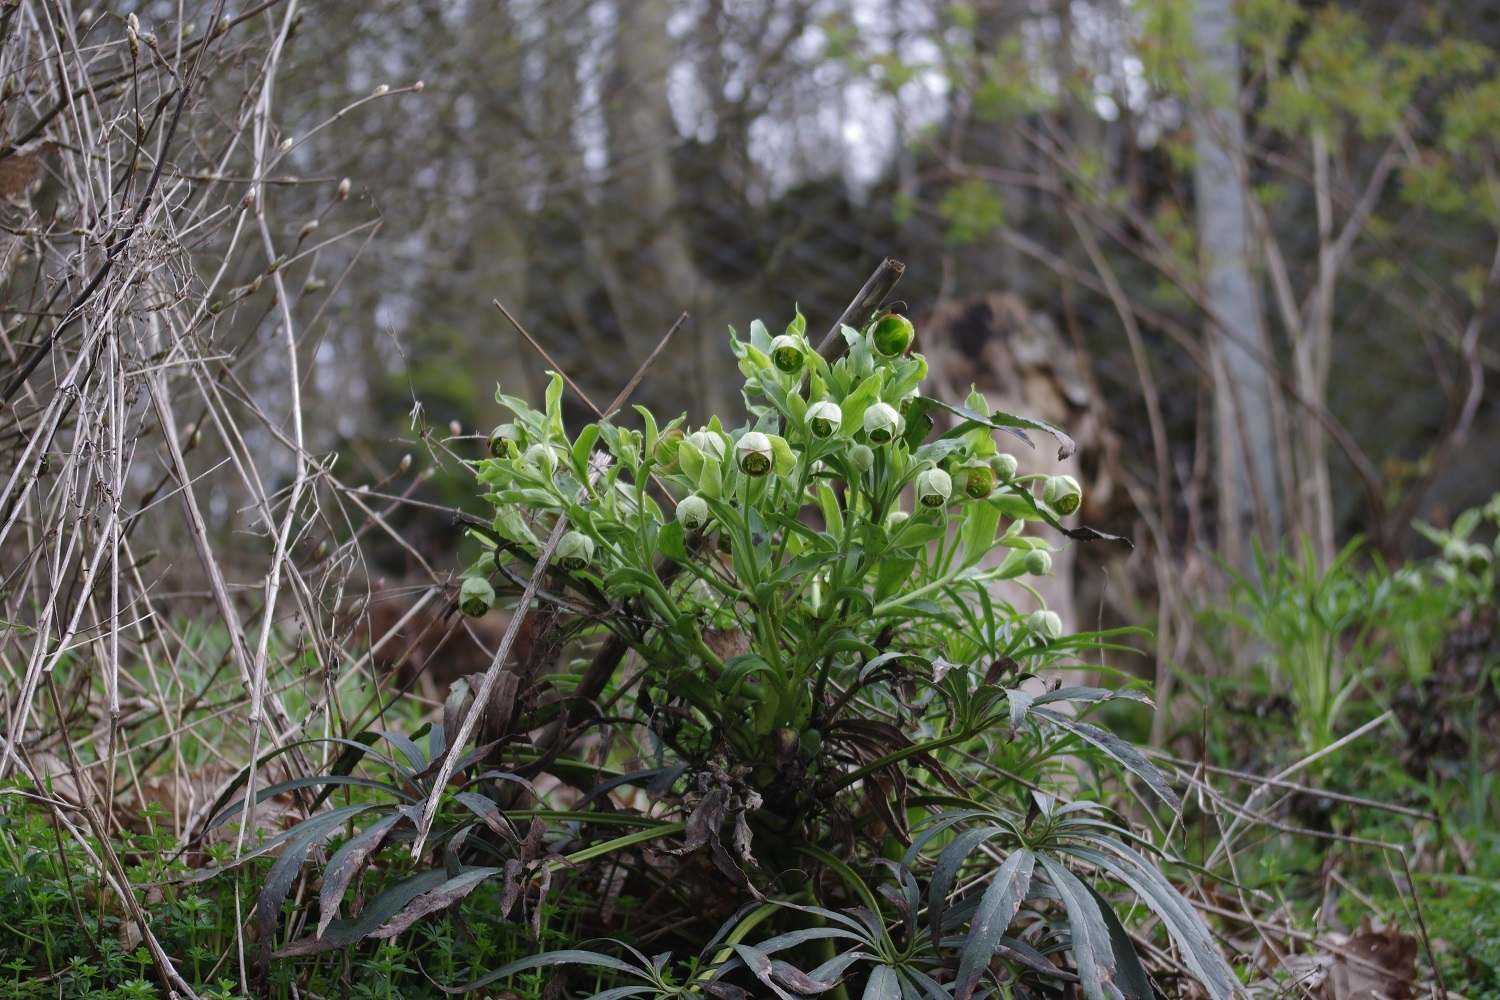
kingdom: Plantae
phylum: Tracheophyta
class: Magnoliopsida
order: Ranunculales
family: Ranunculaceae
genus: Helleborus
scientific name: Helleborus foetidus
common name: Stinking hellebore
